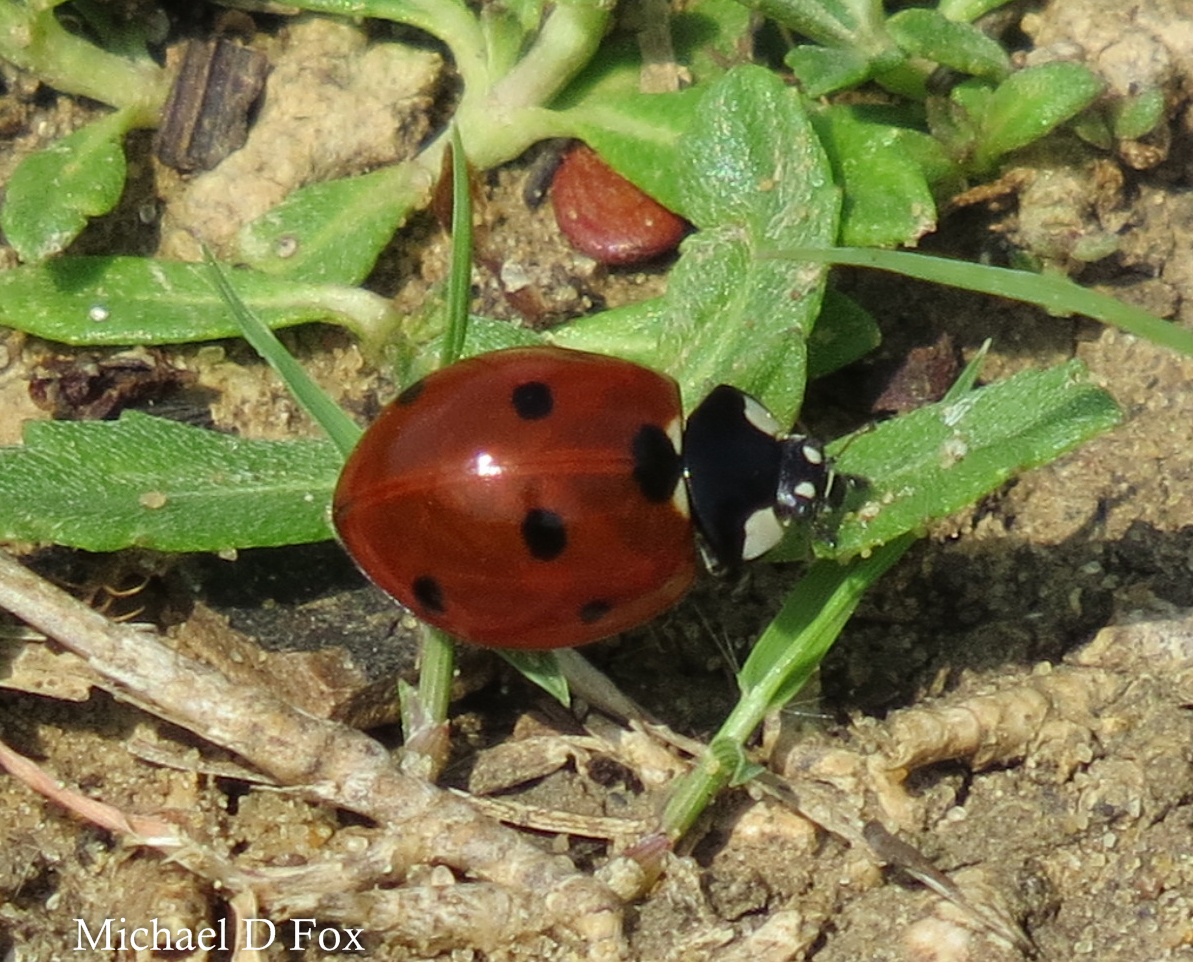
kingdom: Animalia
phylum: Arthropoda
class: Insecta
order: Coleoptera
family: Coccinellidae
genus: Coccinella
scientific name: Coccinella septempunctata
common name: Sevenspotted lady beetle
